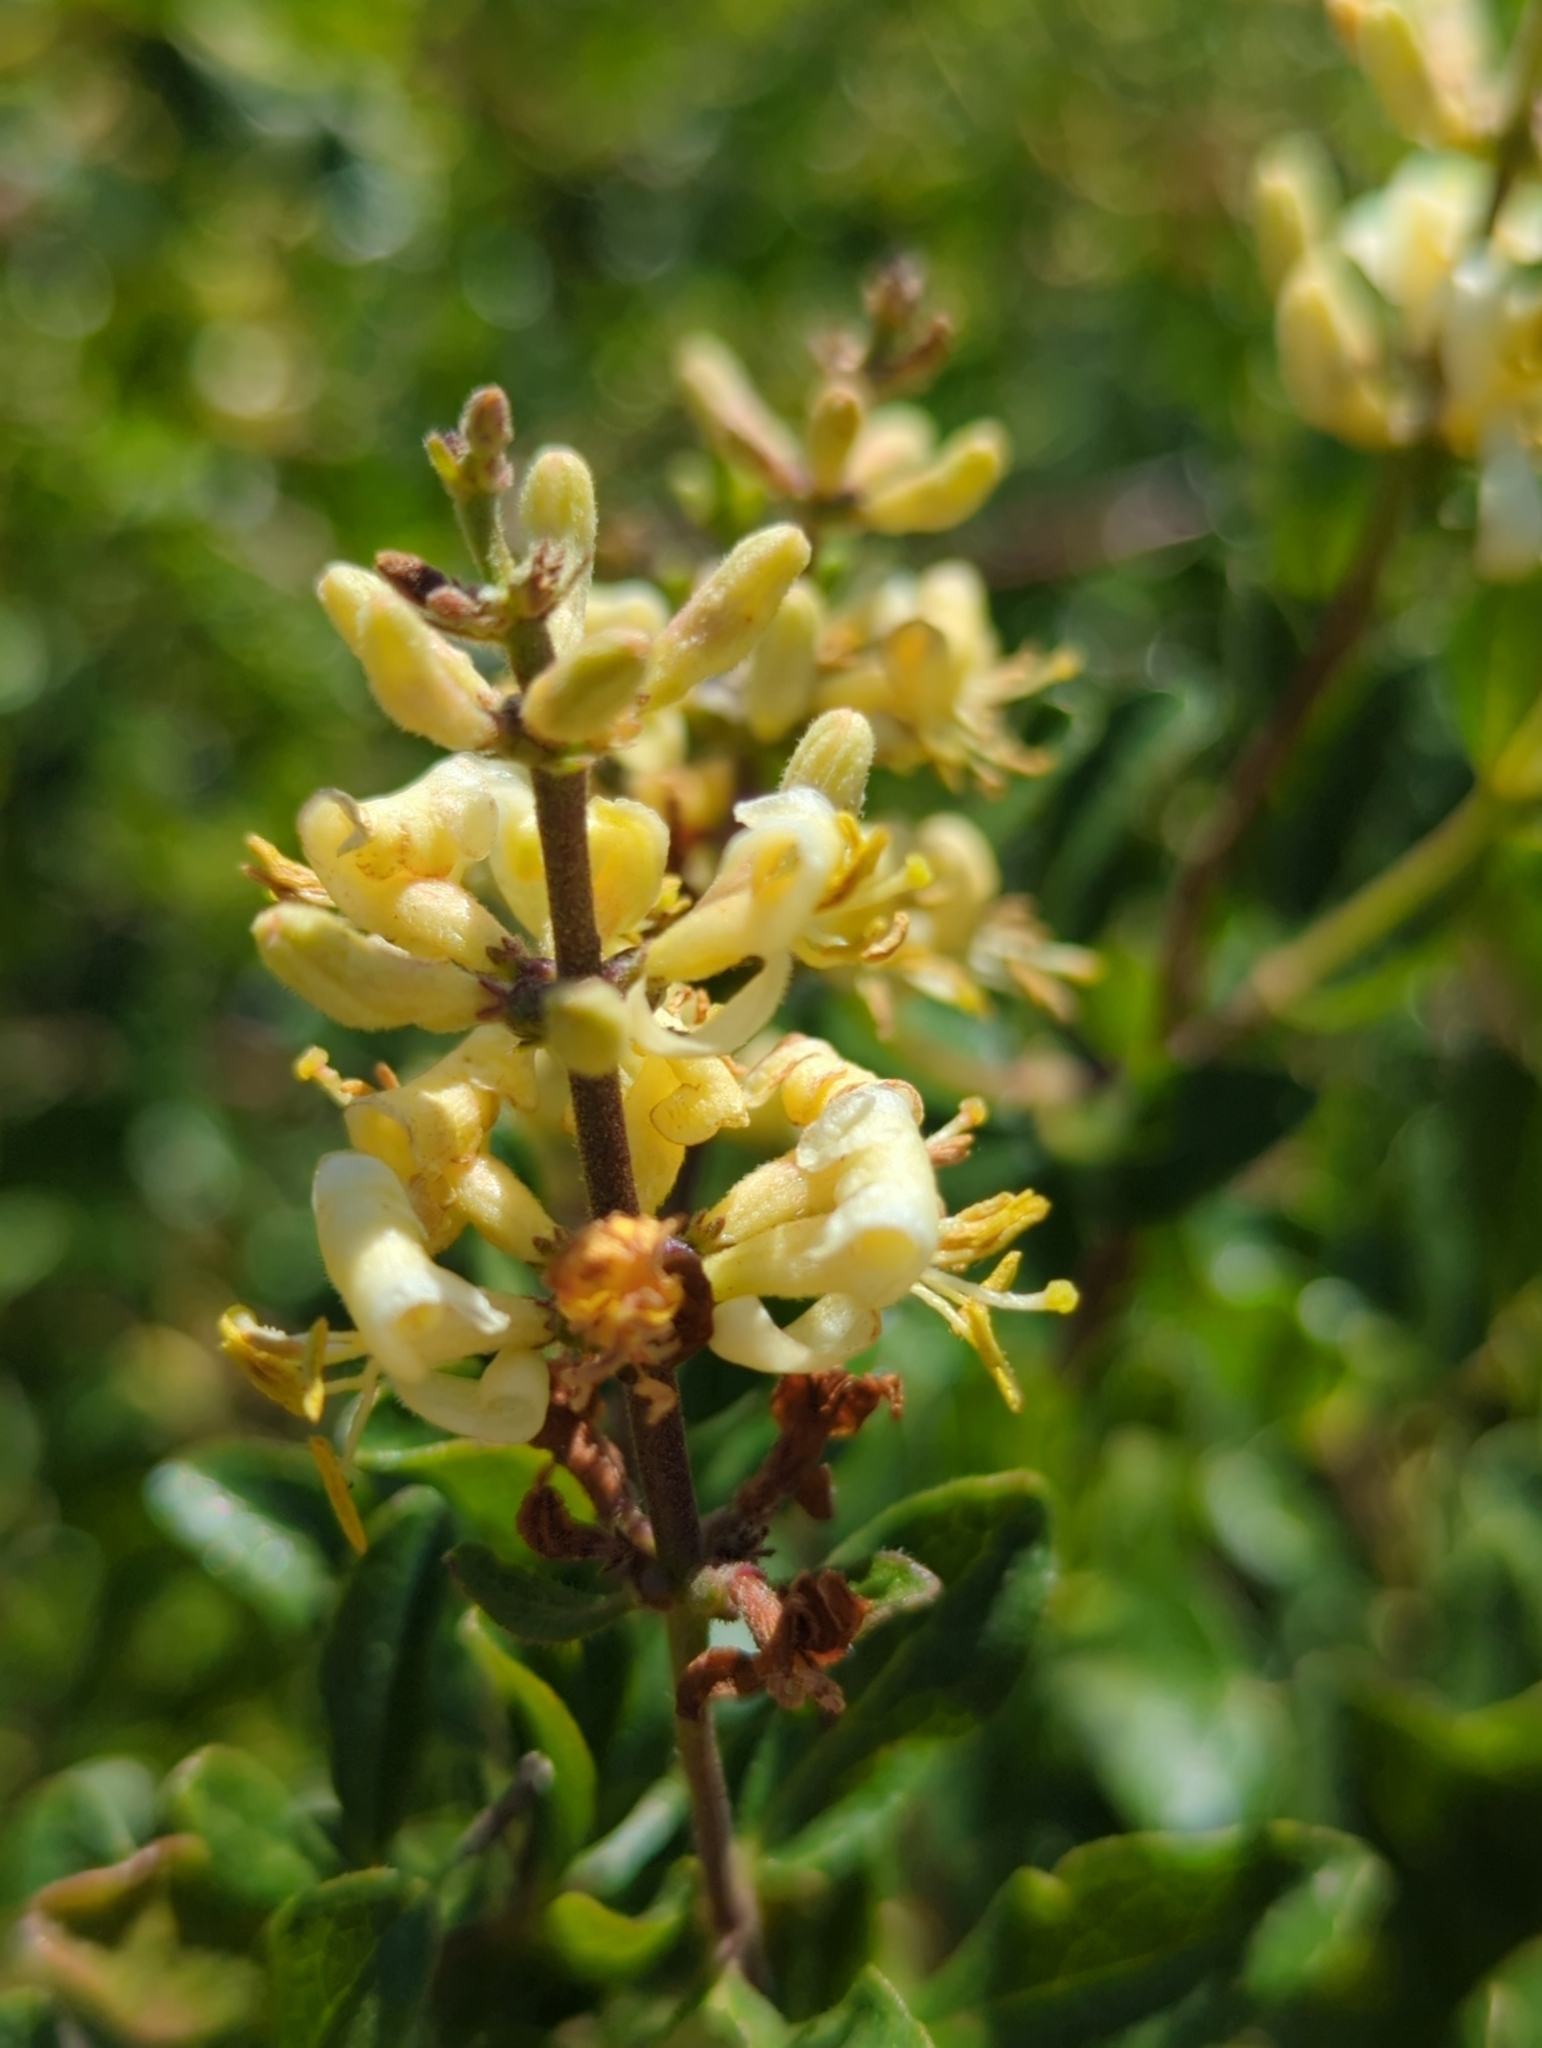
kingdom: Plantae
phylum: Tracheophyta
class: Magnoliopsida
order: Dipsacales
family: Caprifoliaceae
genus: Lonicera
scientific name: Lonicera subspicata
